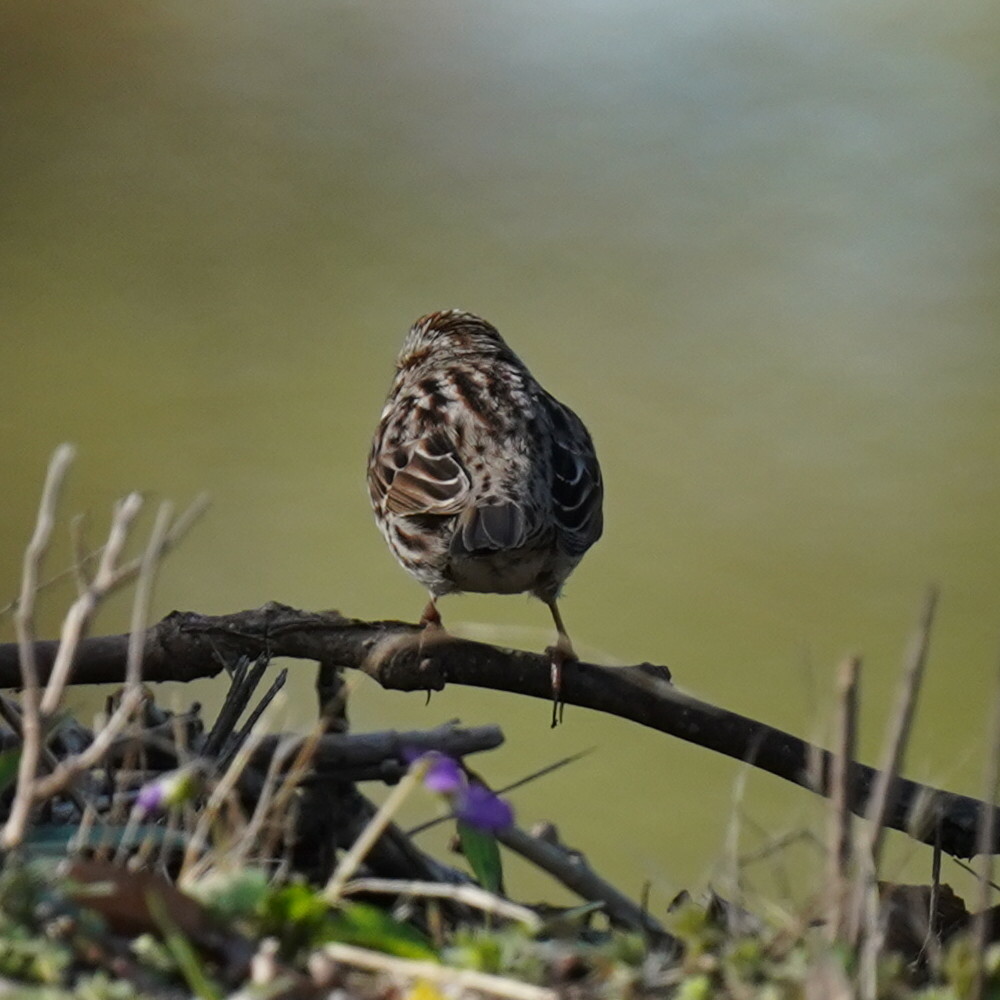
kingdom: Animalia
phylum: Chordata
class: Aves
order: Passeriformes
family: Passerellidae
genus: Melospiza
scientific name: Melospiza melodia
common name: Song sparrow
